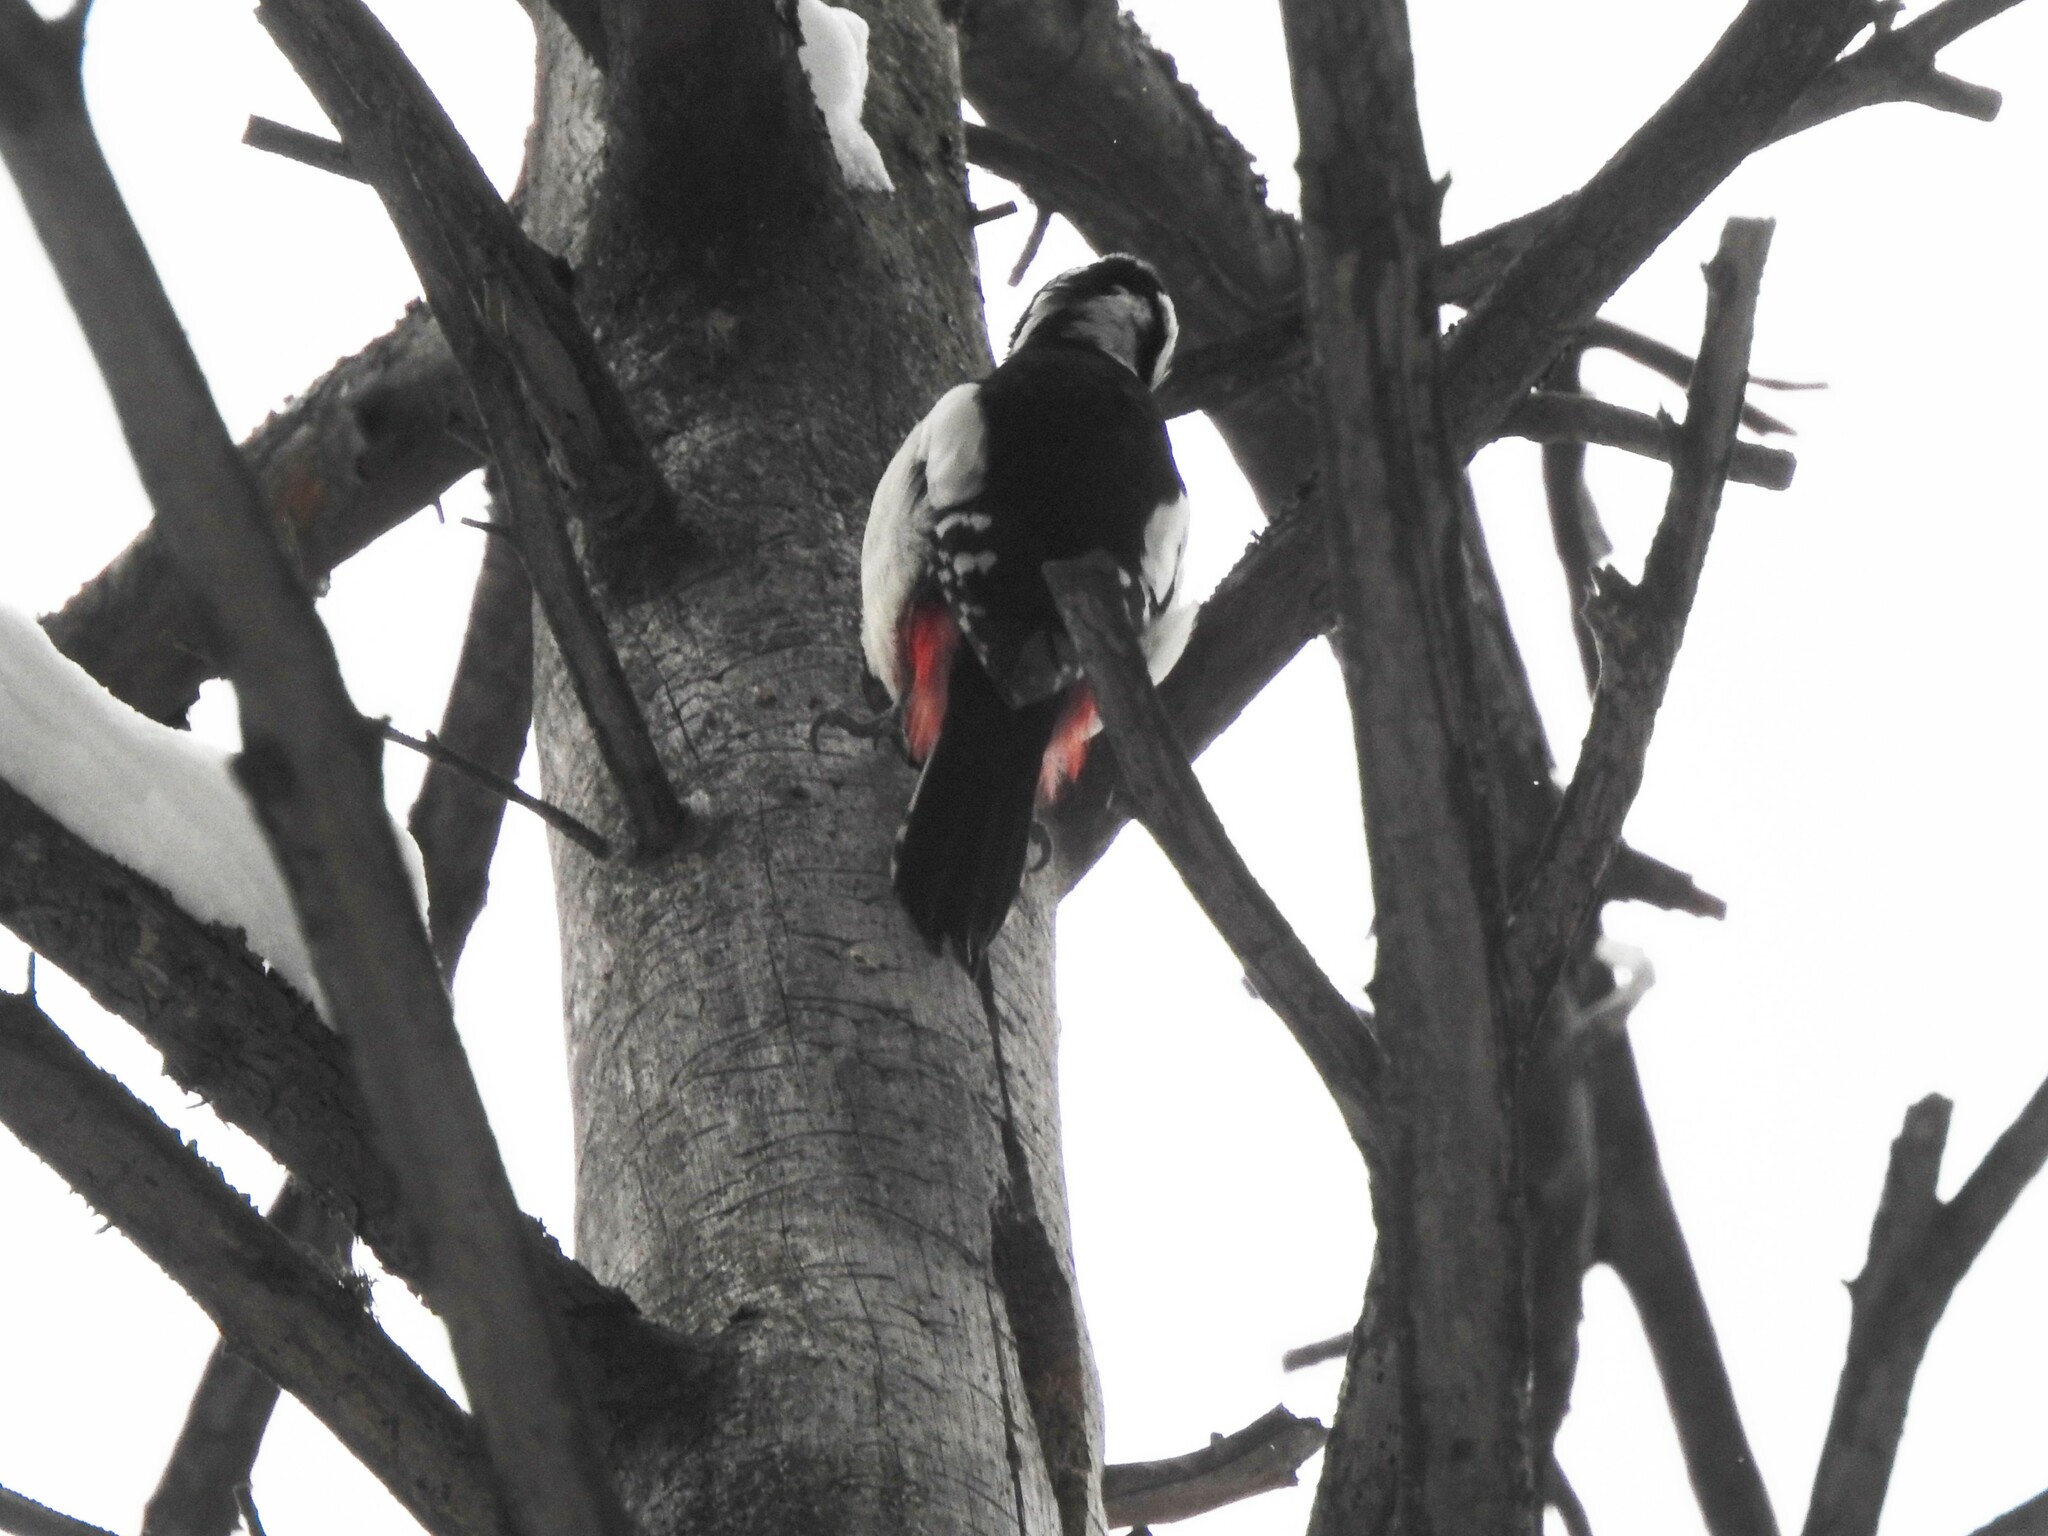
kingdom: Animalia
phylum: Chordata
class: Aves
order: Piciformes
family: Picidae
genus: Dendrocopos
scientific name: Dendrocopos major
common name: Great spotted woodpecker
